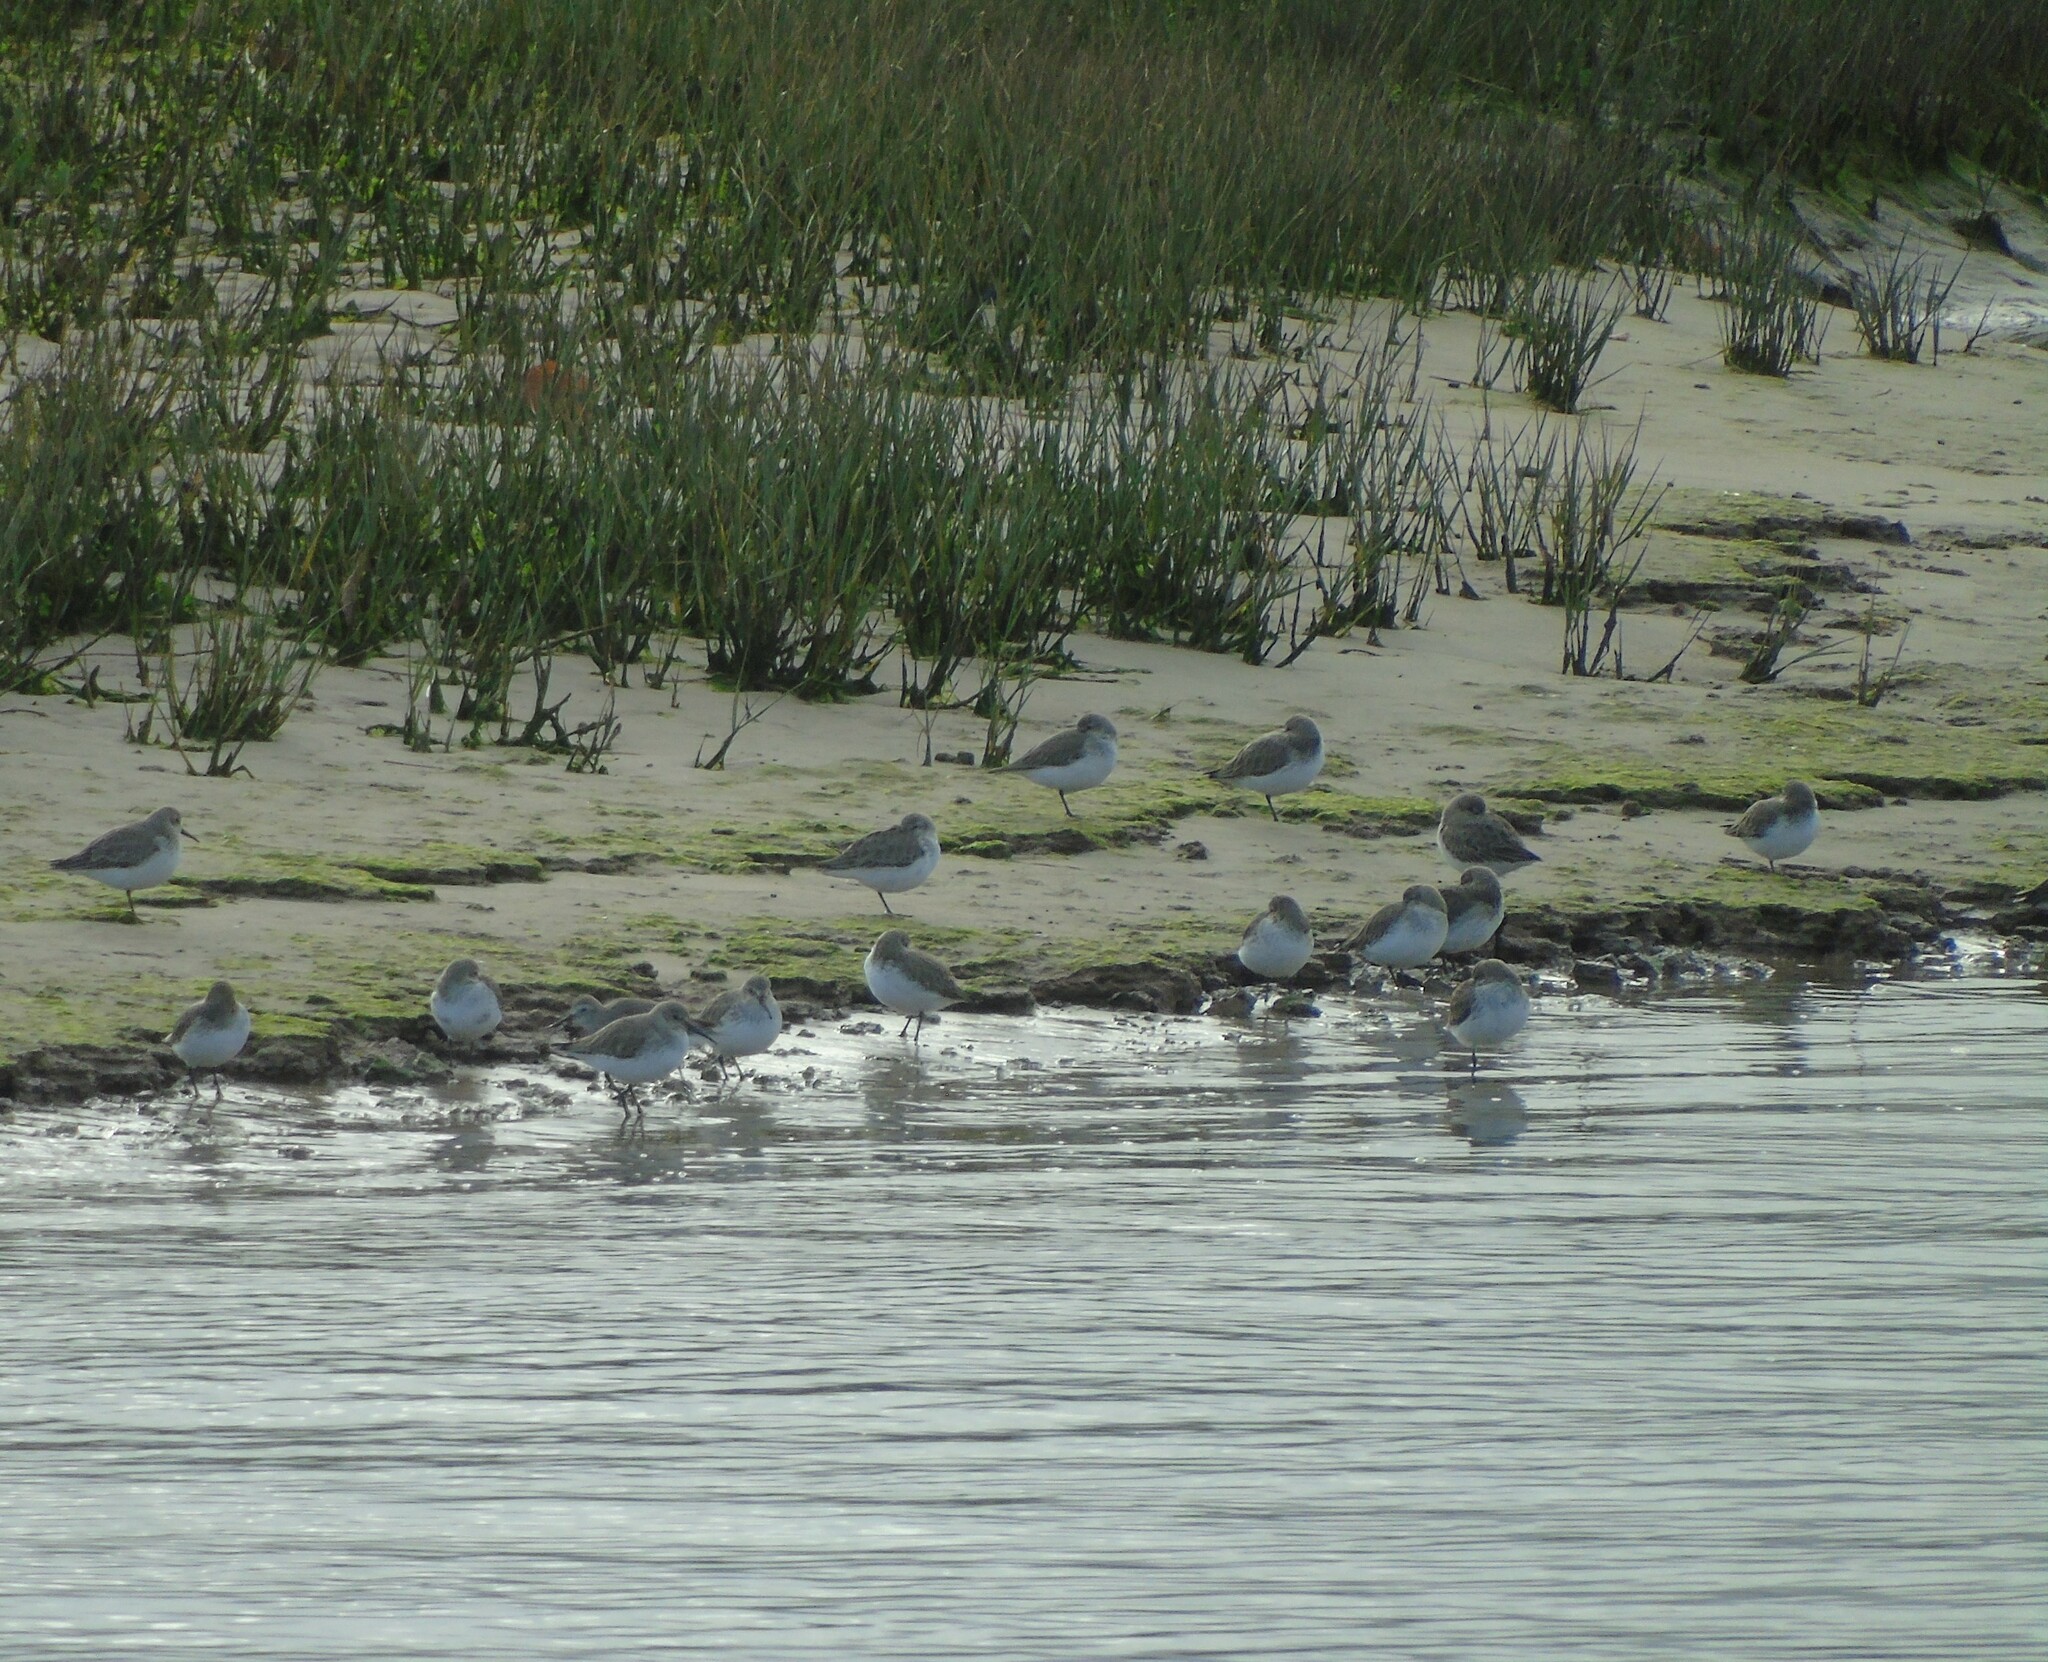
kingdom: Animalia
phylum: Chordata
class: Aves
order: Charadriiformes
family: Scolopacidae
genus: Calidris
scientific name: Calidris alpina
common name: Dunlin
